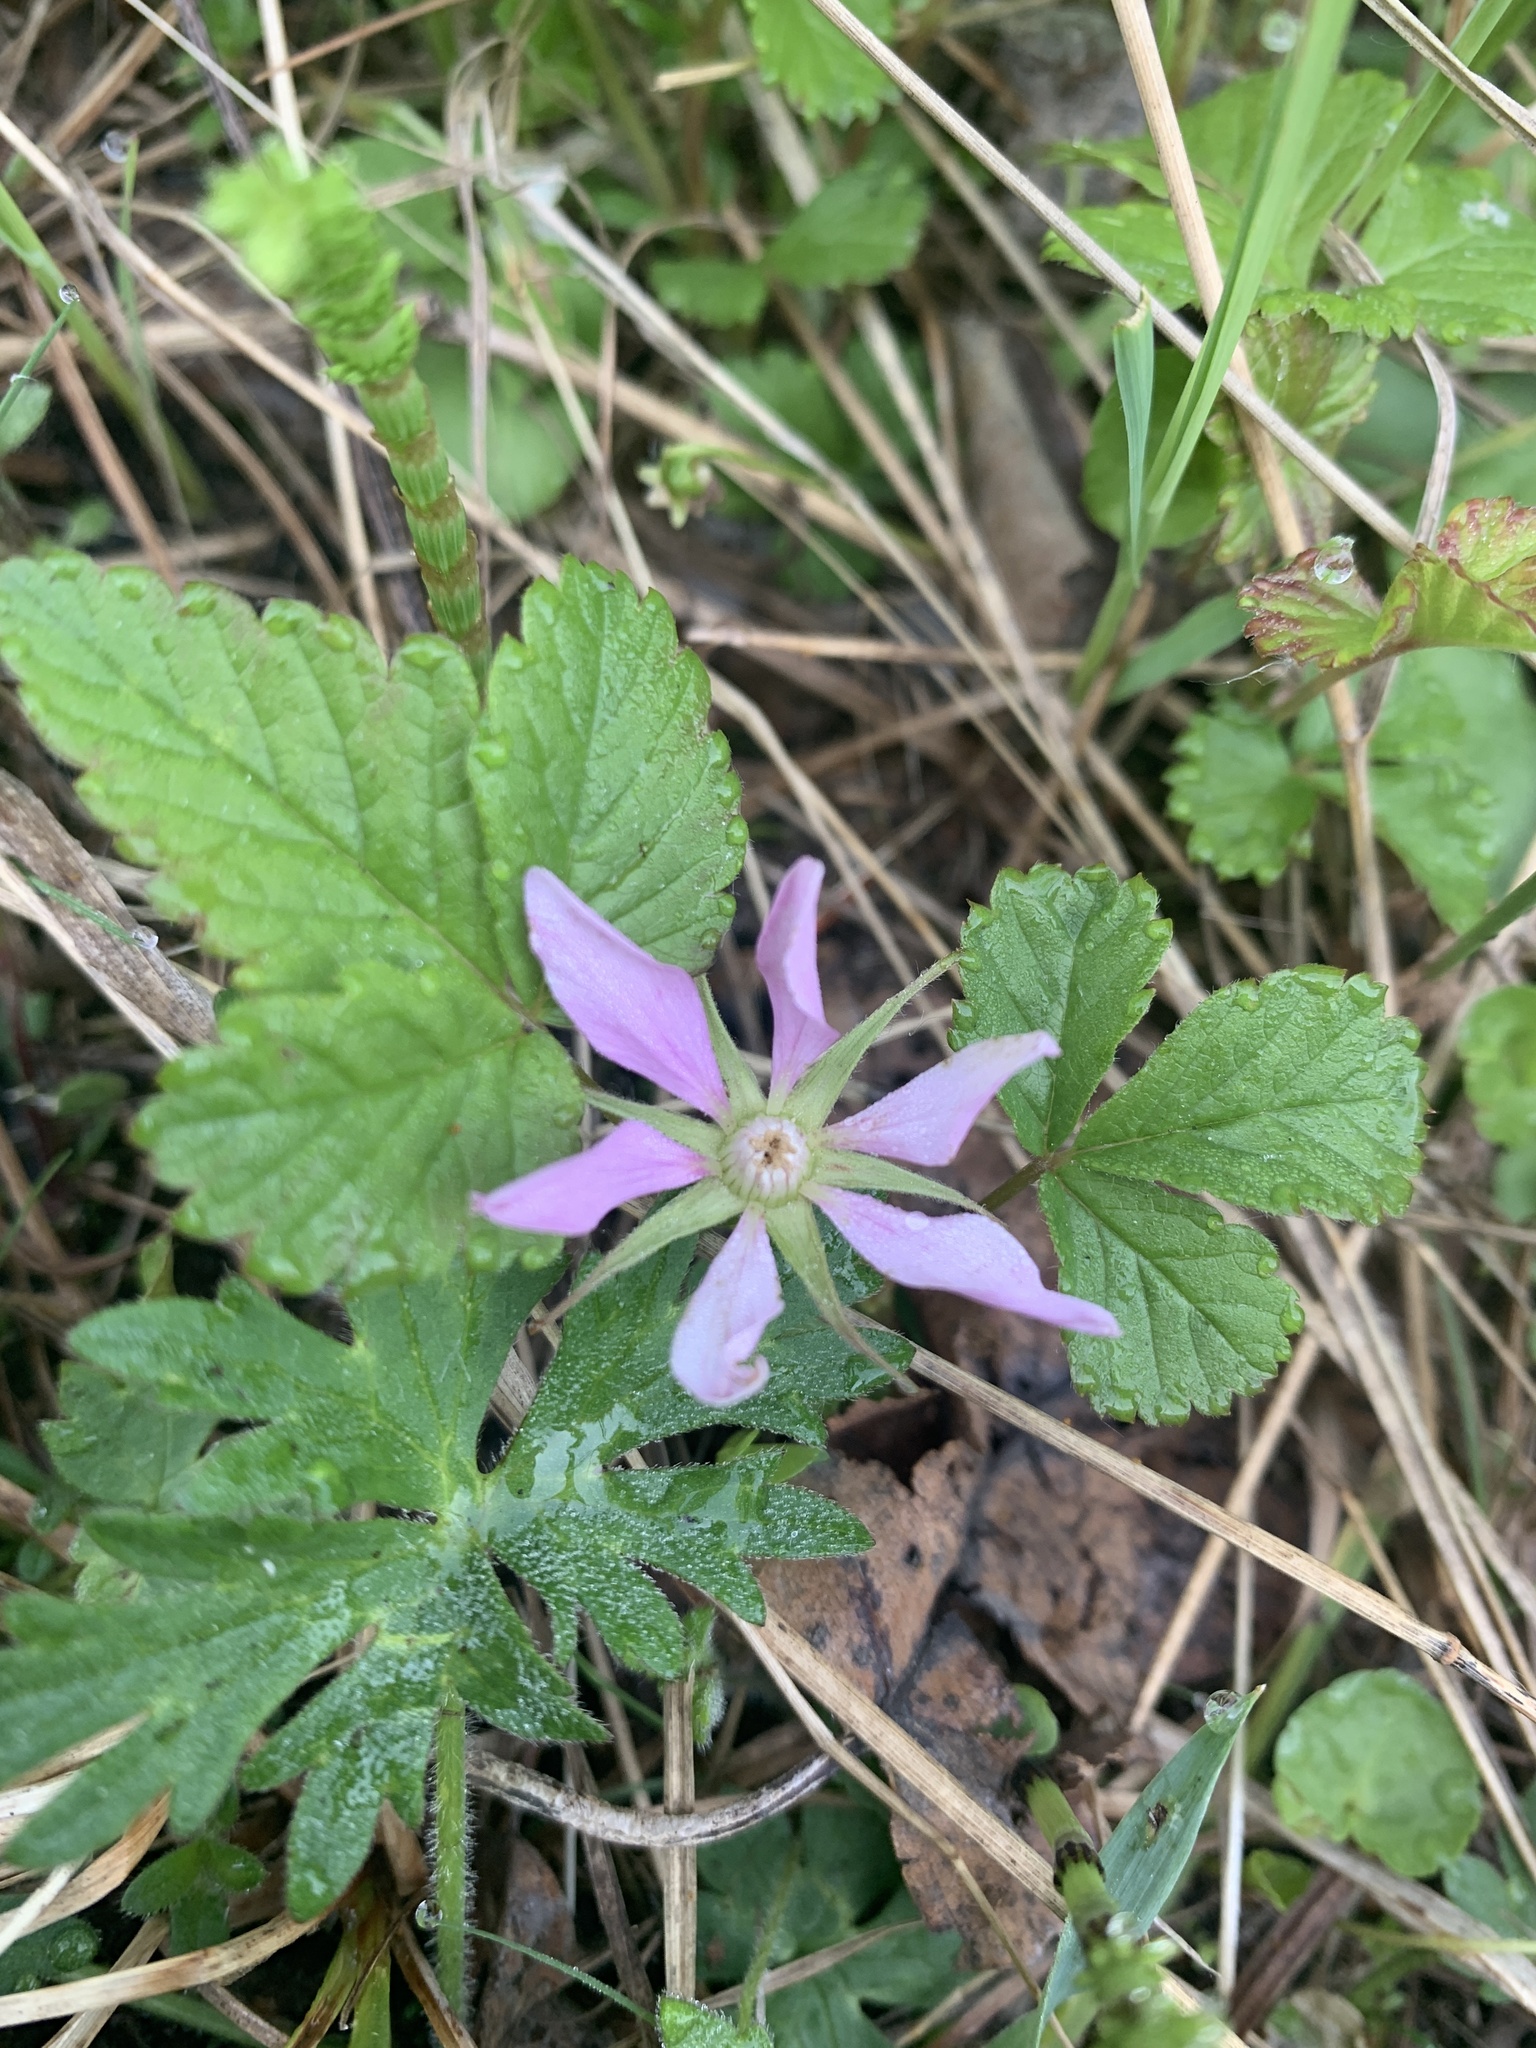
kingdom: Plantae
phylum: Tracheophyta
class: Magnoliopsida
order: Rosales
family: Rosaceae
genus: Rubus
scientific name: Rubus arcticus
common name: Arctic bramble
